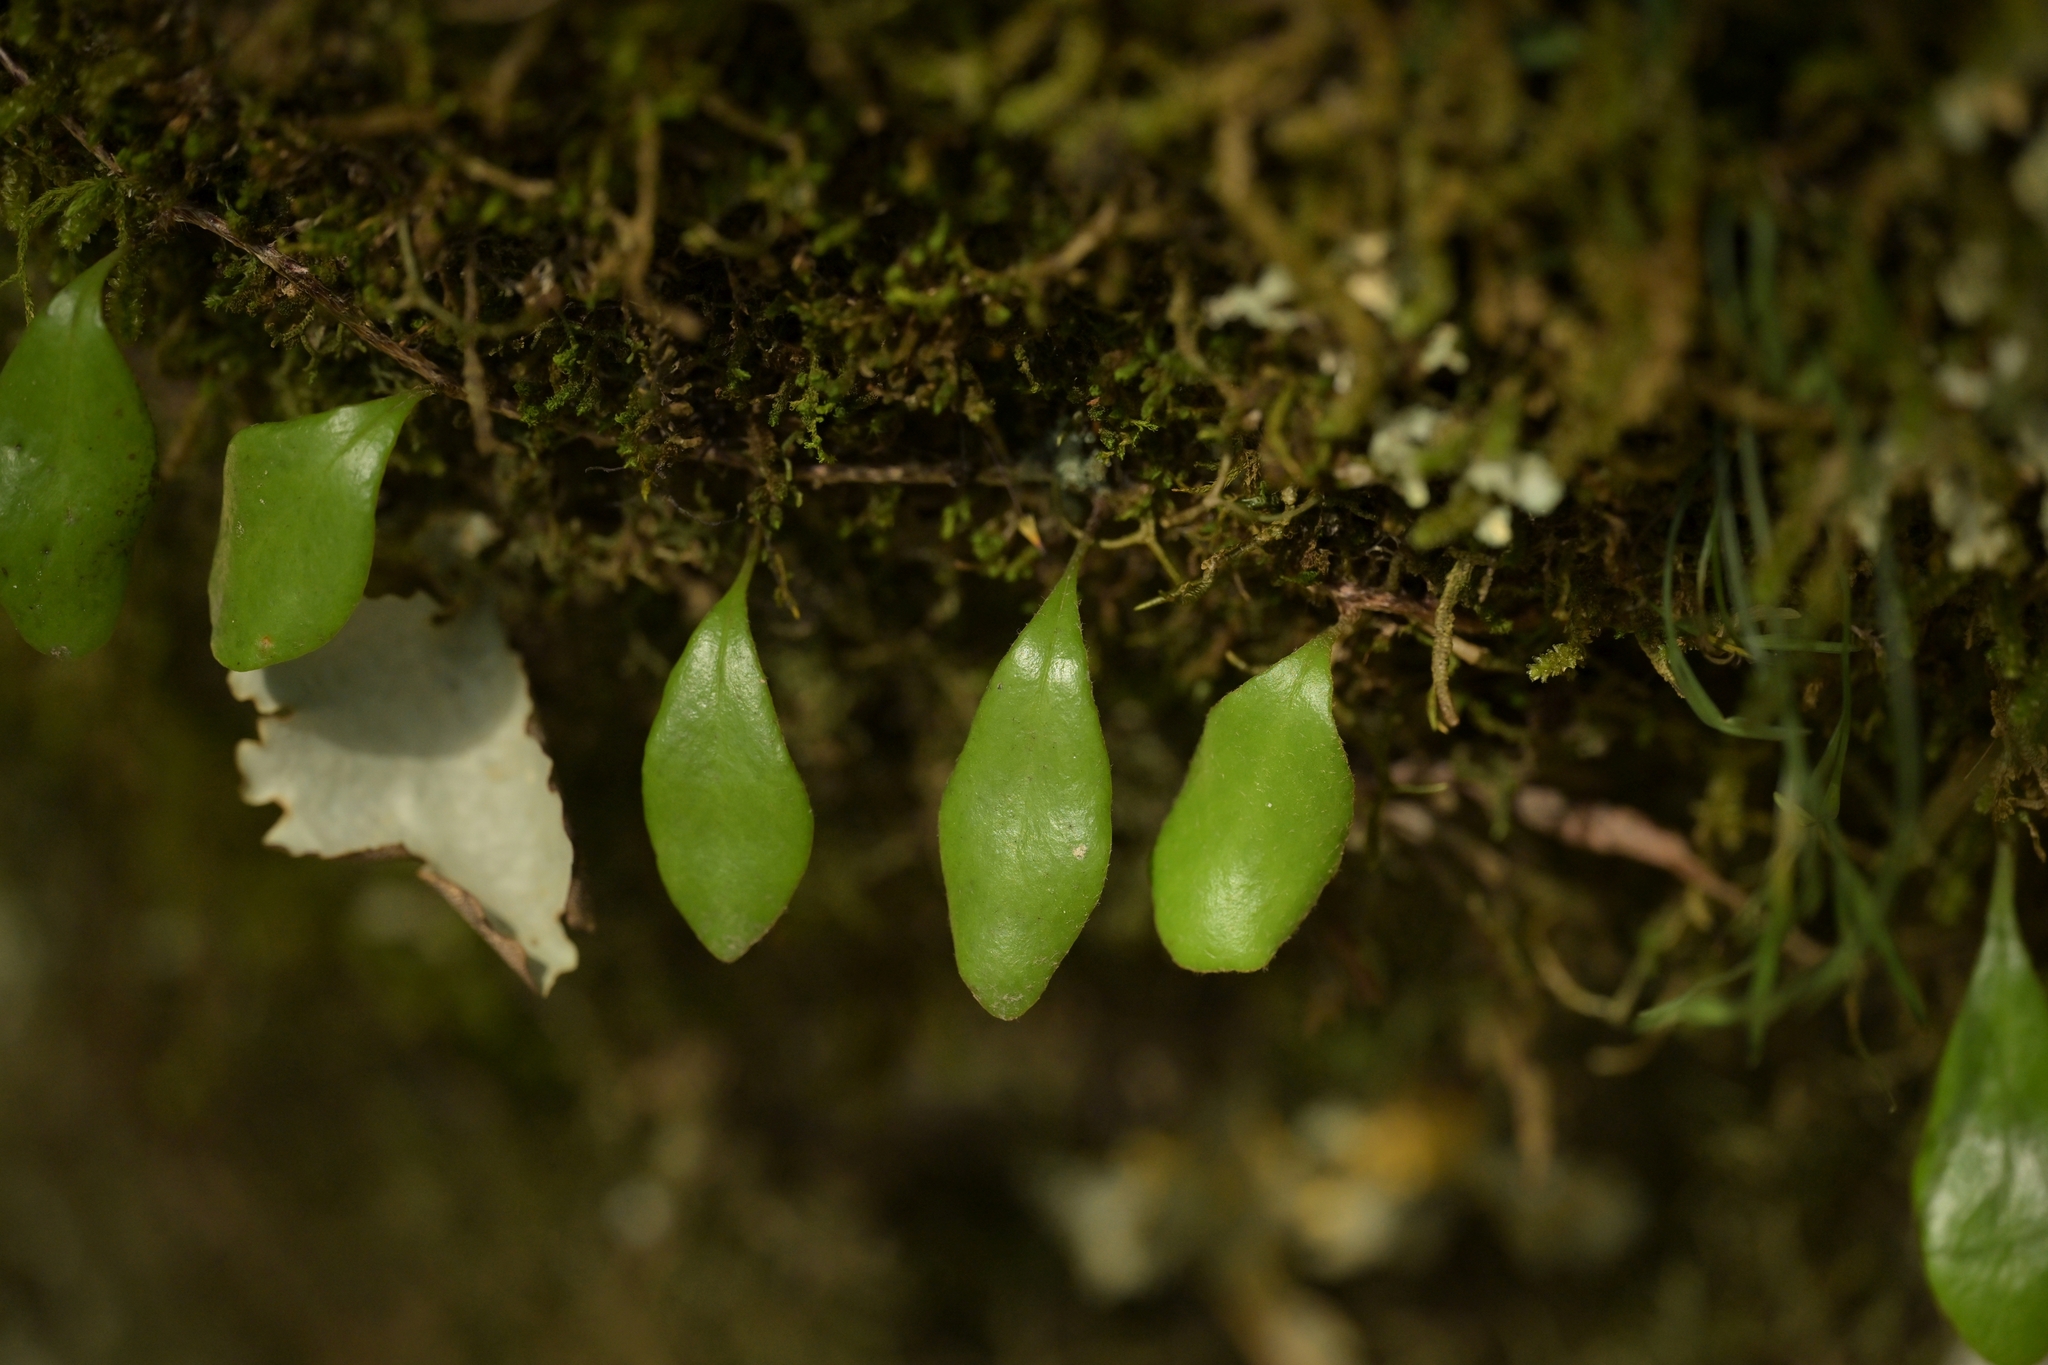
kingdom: Plantae
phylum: Tracheophyta
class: Polypodiopsida
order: Polypodiales
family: Polypodiaceae
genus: Pyrrosia
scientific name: Pyrrosia eleagnifolia
